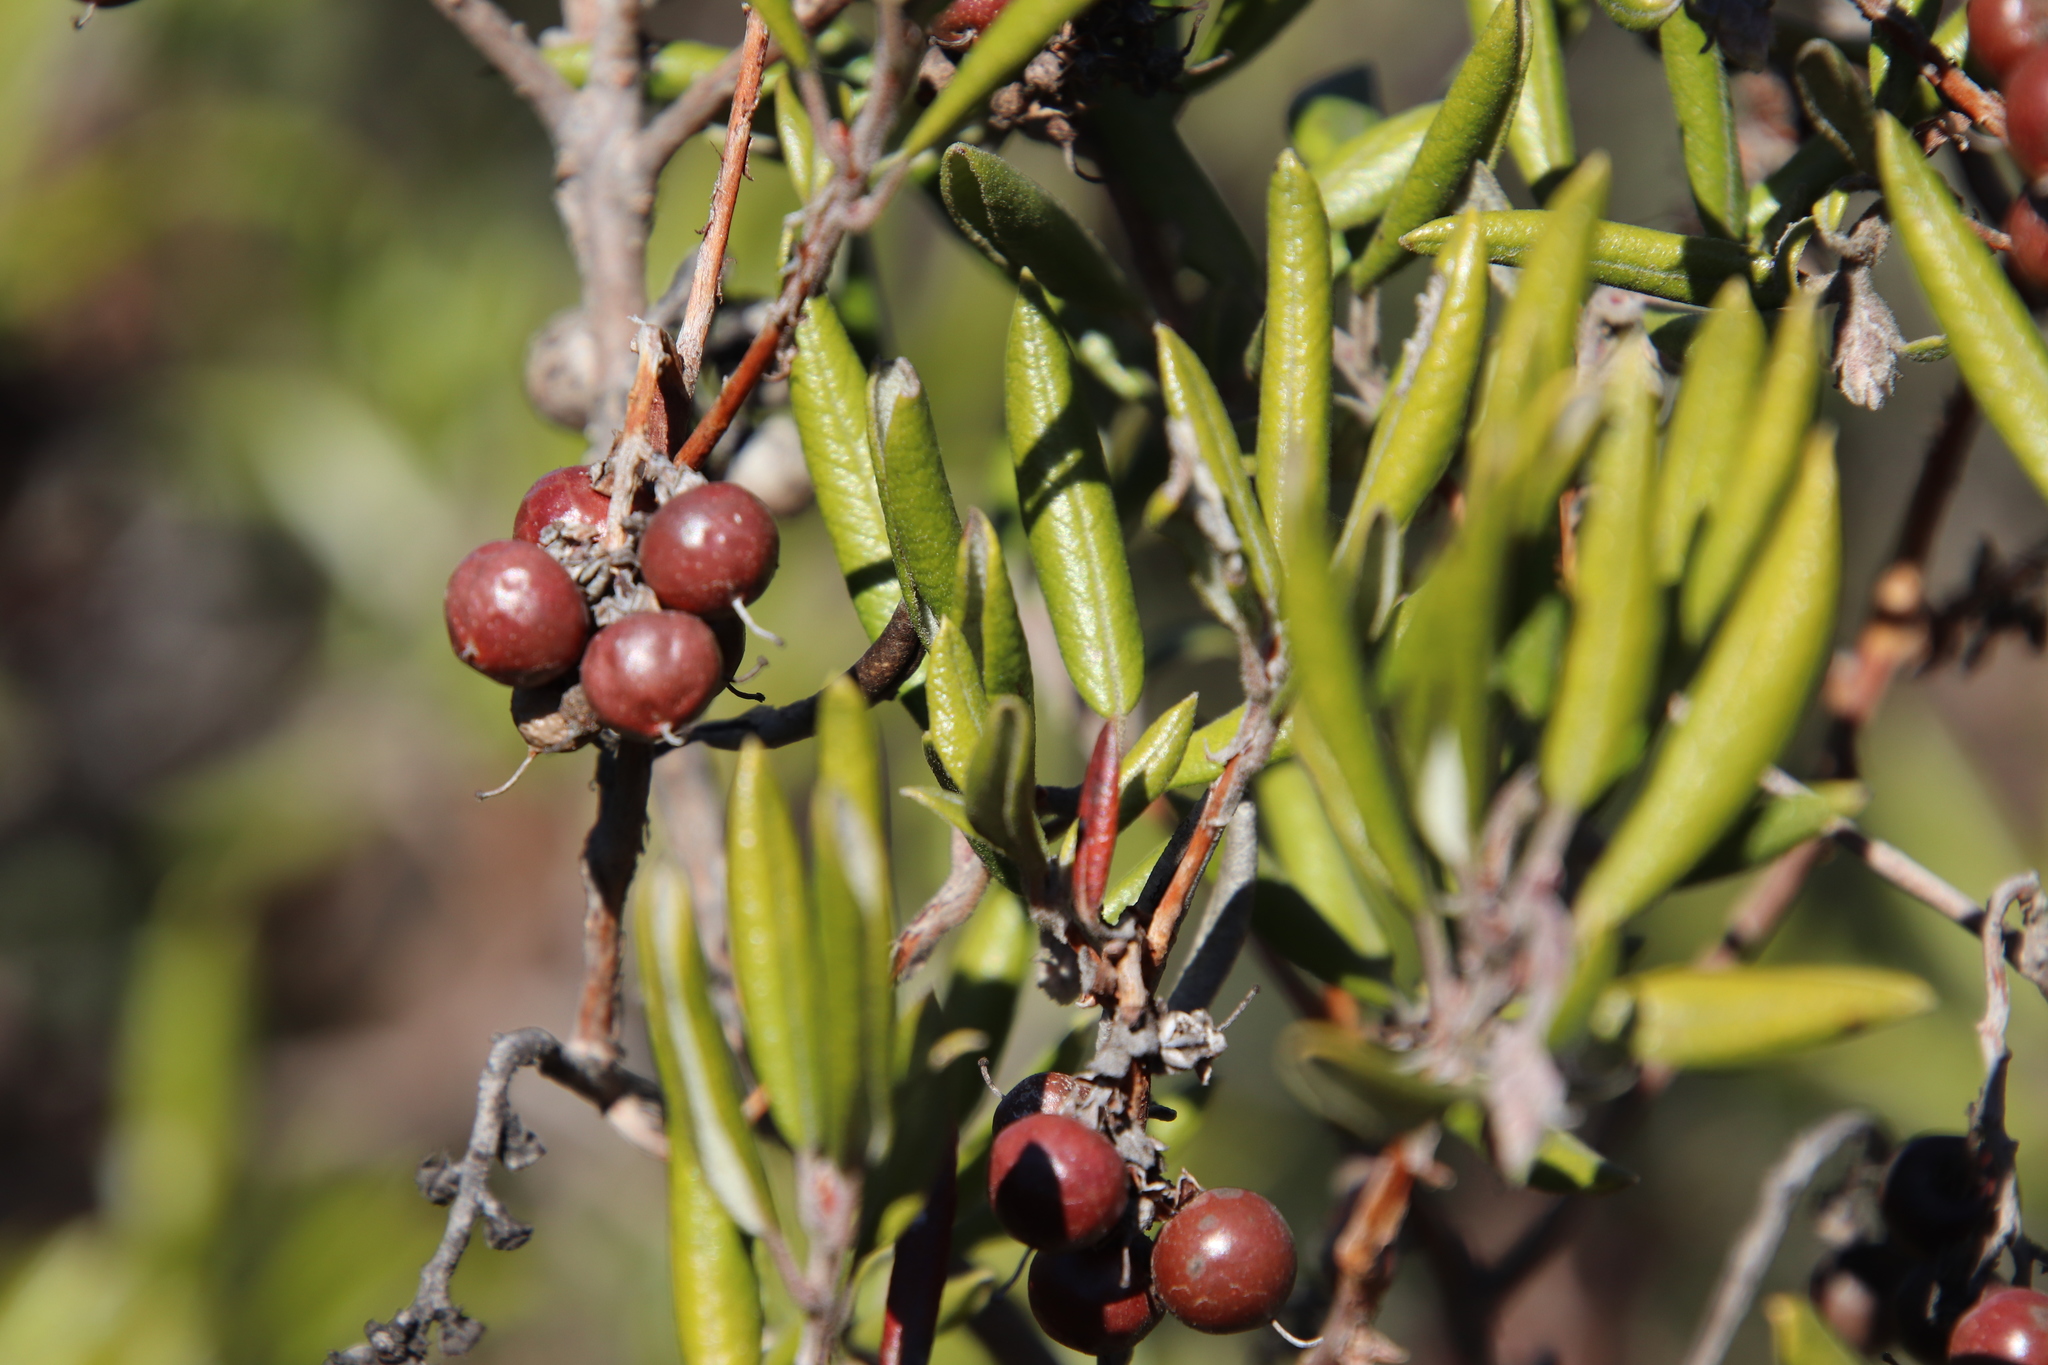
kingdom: Plantae
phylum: Tracheophyta
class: Magnoliopsida
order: Ericales
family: Ericaceae
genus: Arctostaphylos
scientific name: Arctostaphylos bicolor
